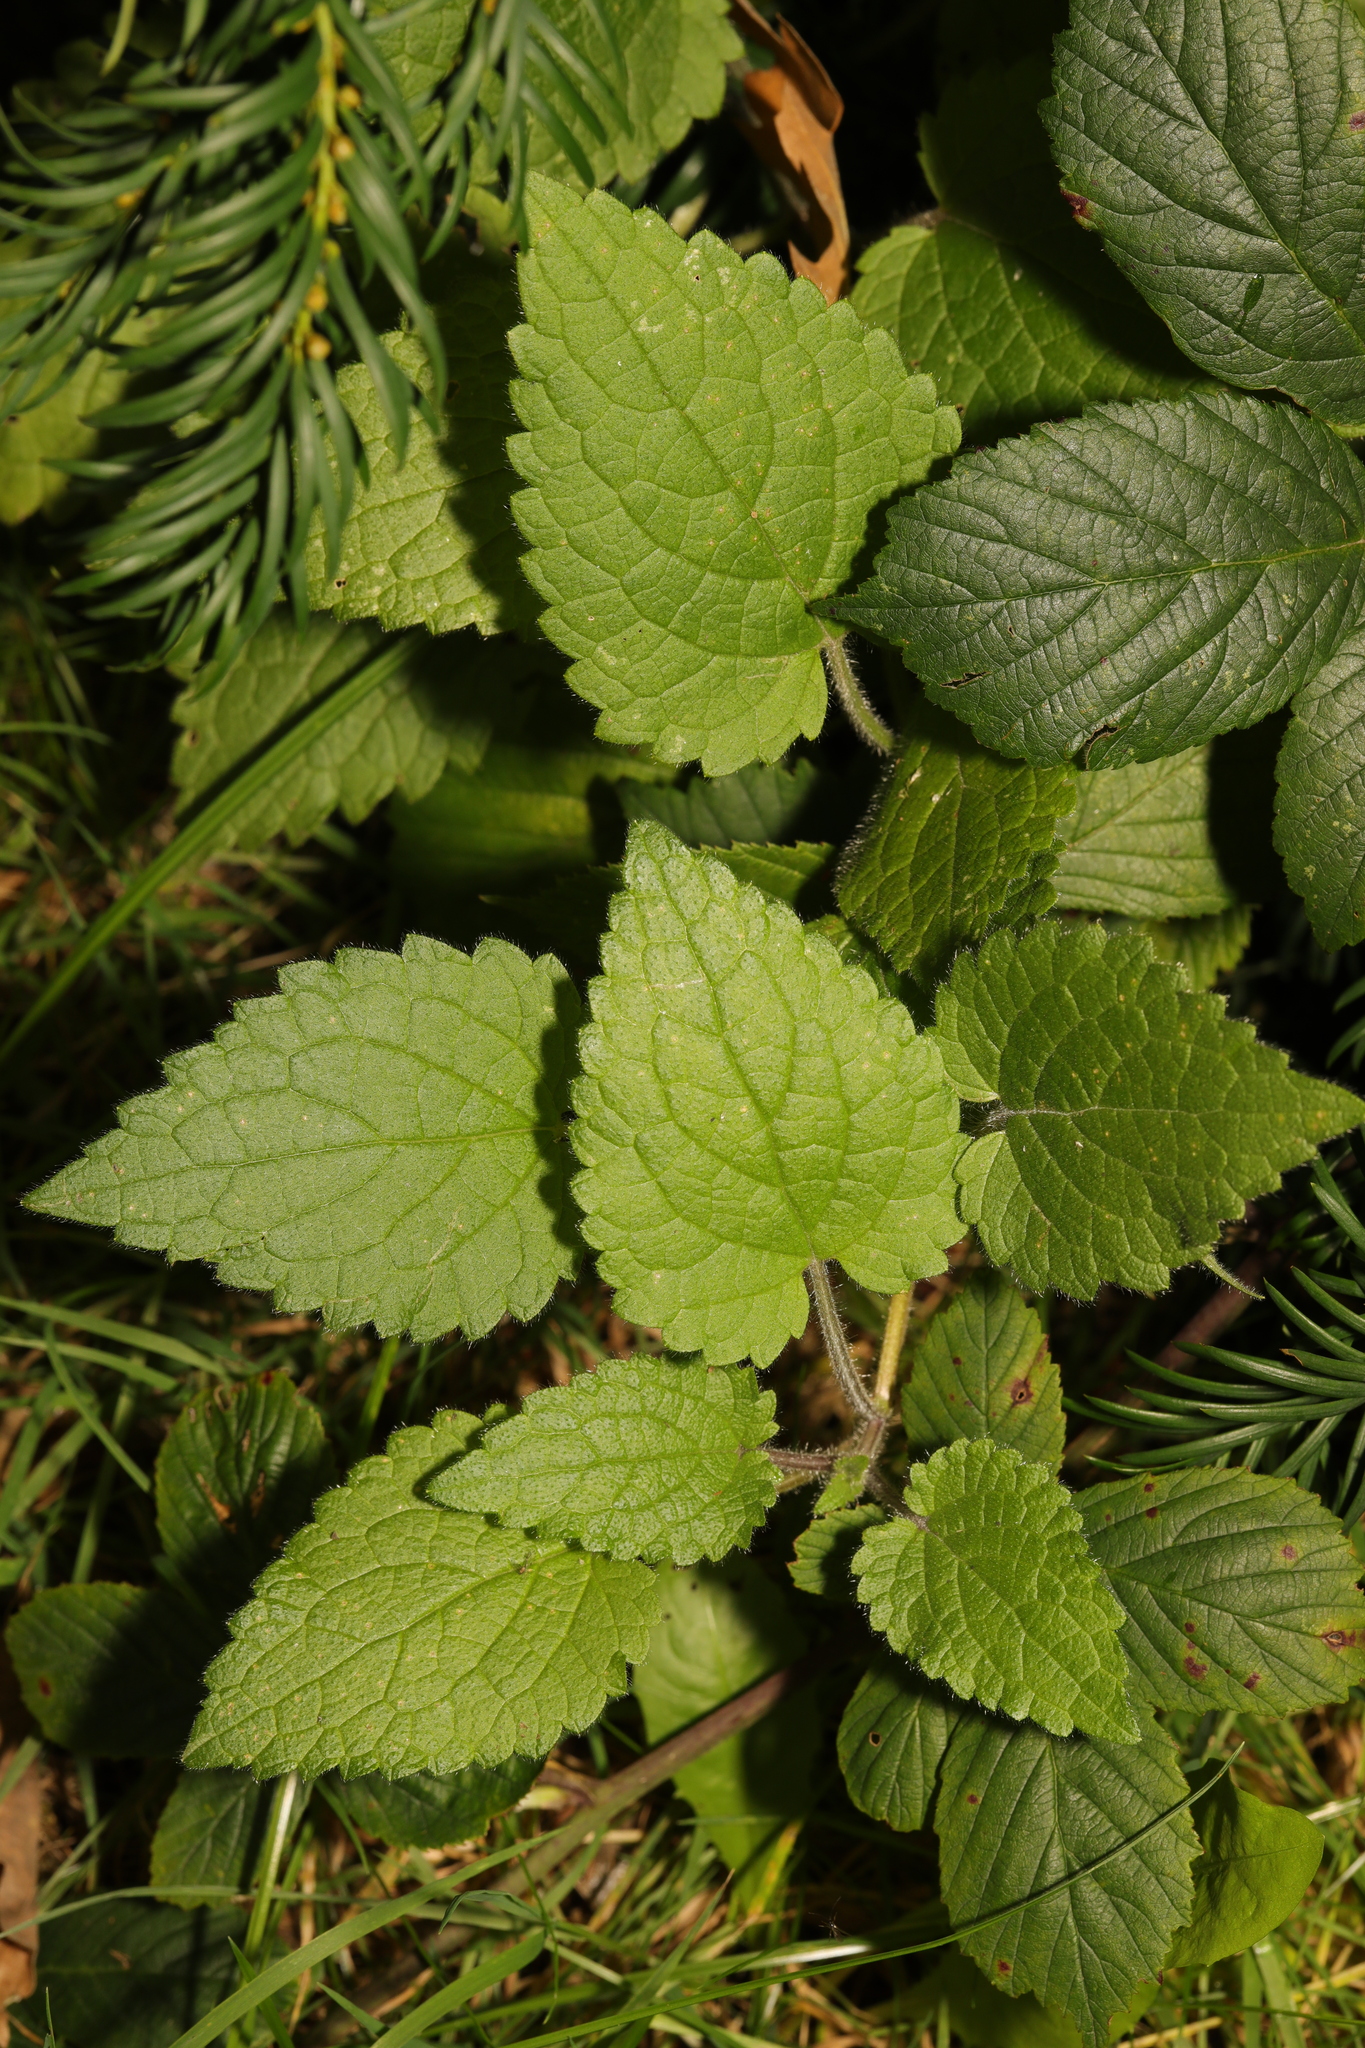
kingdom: Plantae
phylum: Tracheophyta
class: Magnoliopsida
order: Lamiales
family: Lamiaceae
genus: Stachys
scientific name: Stachys sylvatica
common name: Hedge woundwort
